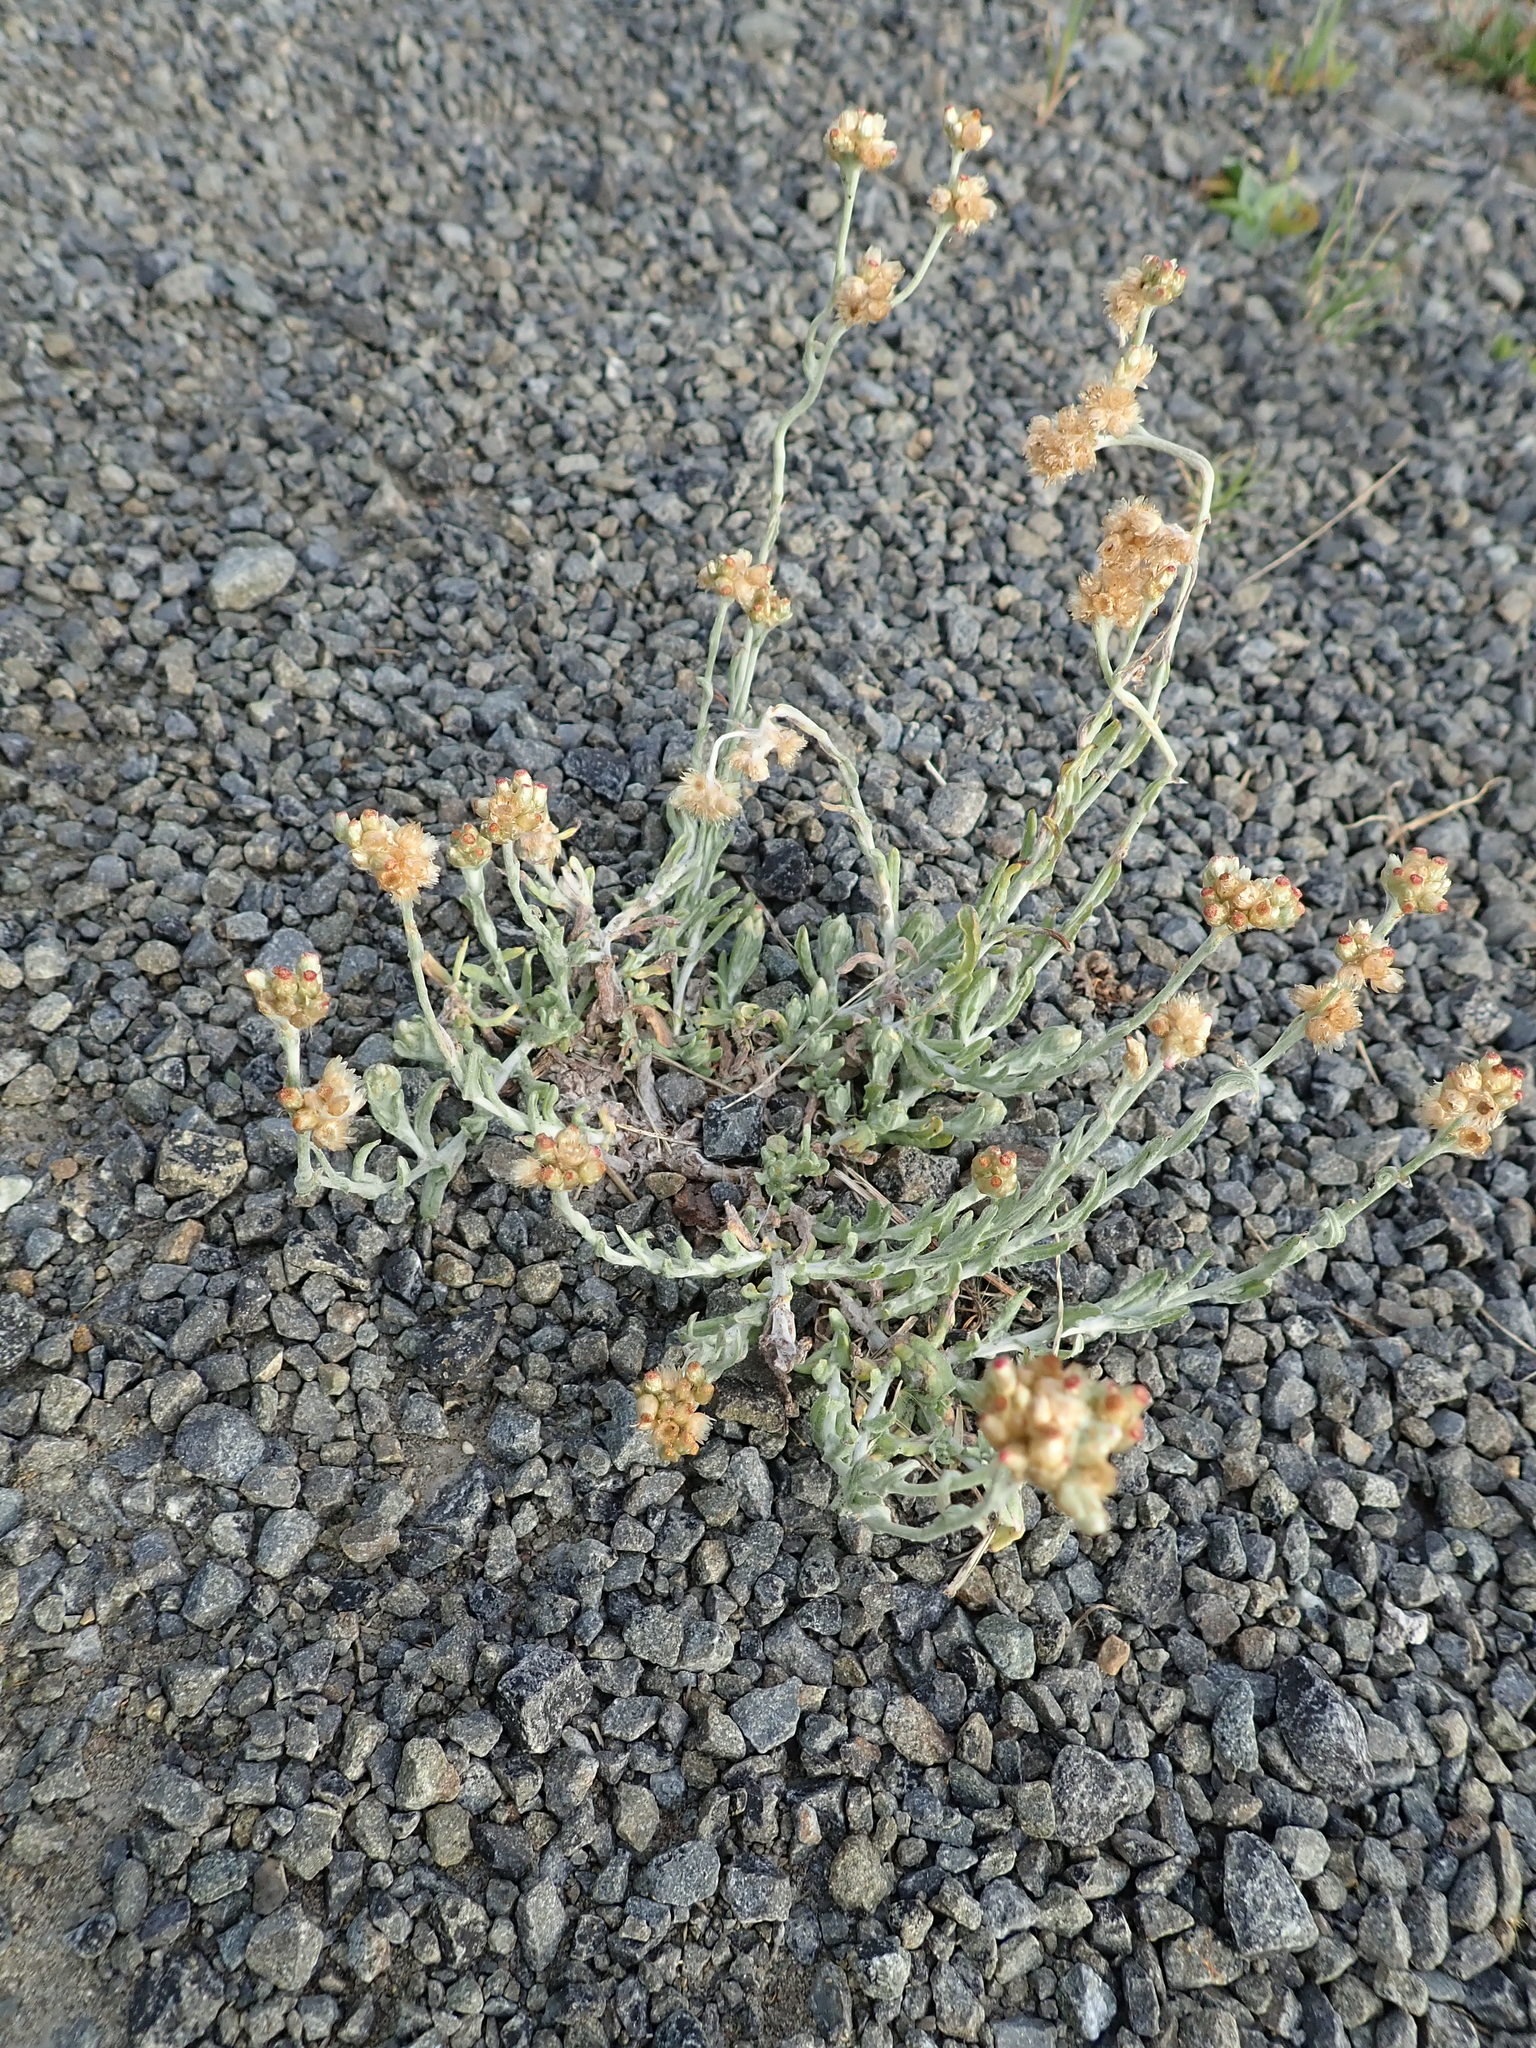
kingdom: Plantae
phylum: Tracheophyta
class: Magnoliopsida
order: Asterales
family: Asteraceae
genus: Helichrysum
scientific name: Helichrysum luteoalbum
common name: Daisy
